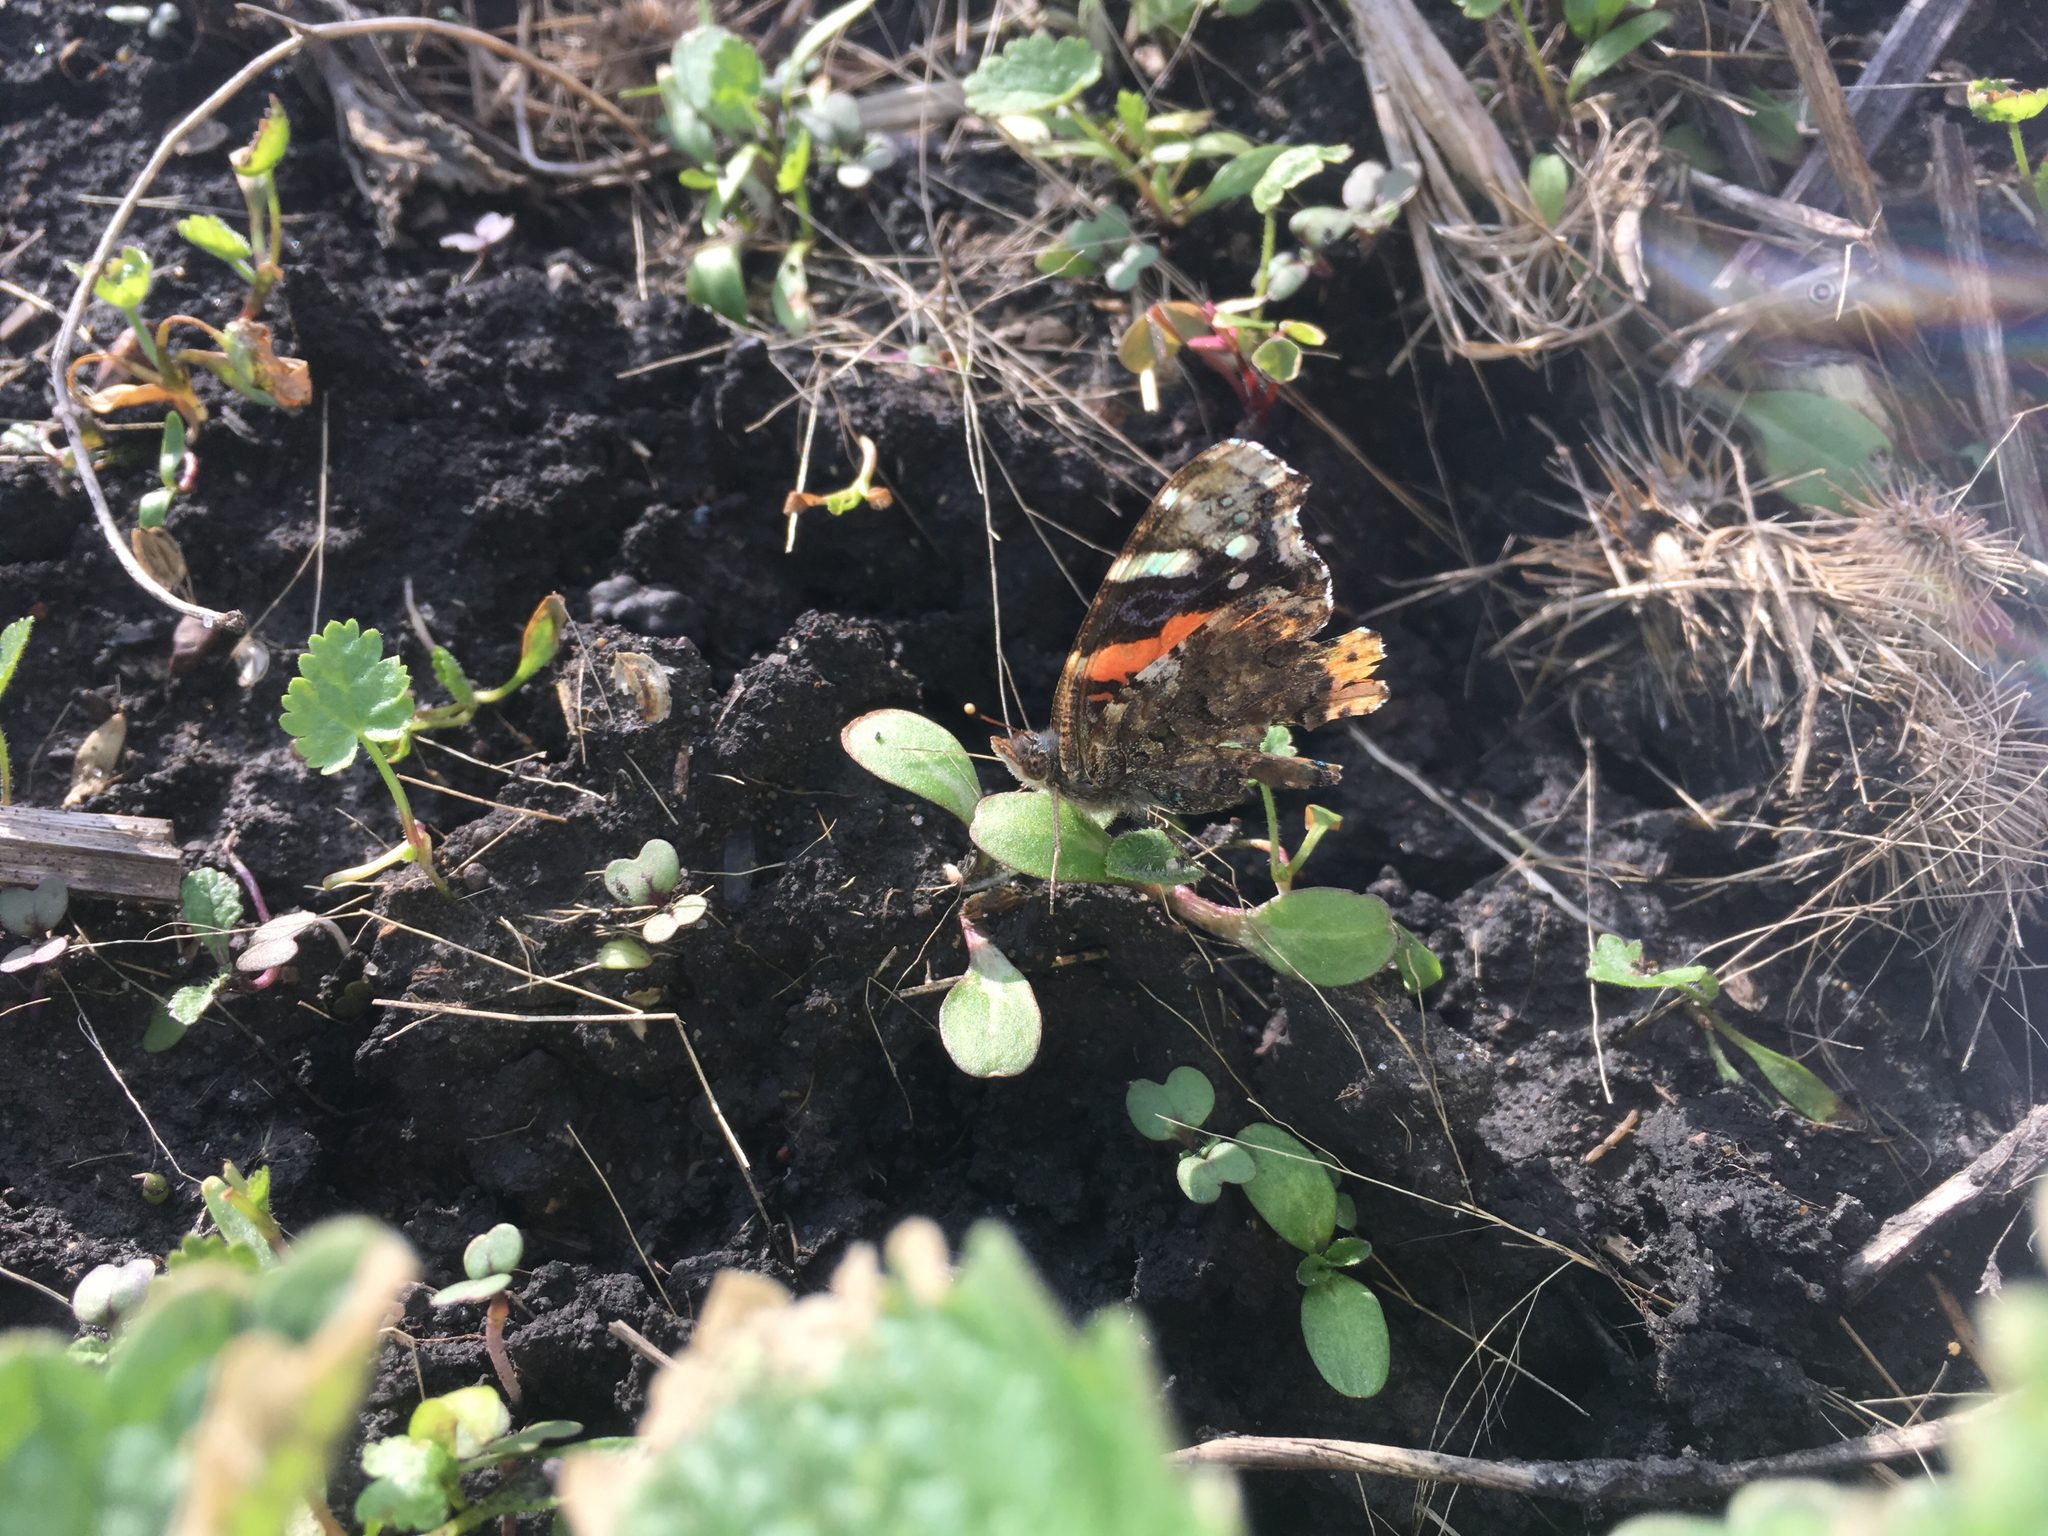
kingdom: Animalia
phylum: Arthropoda
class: Insecta
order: Lepidoptera
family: Nymphalidae
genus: Vanessa
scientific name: Vanessa atalanta
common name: Red admiral
